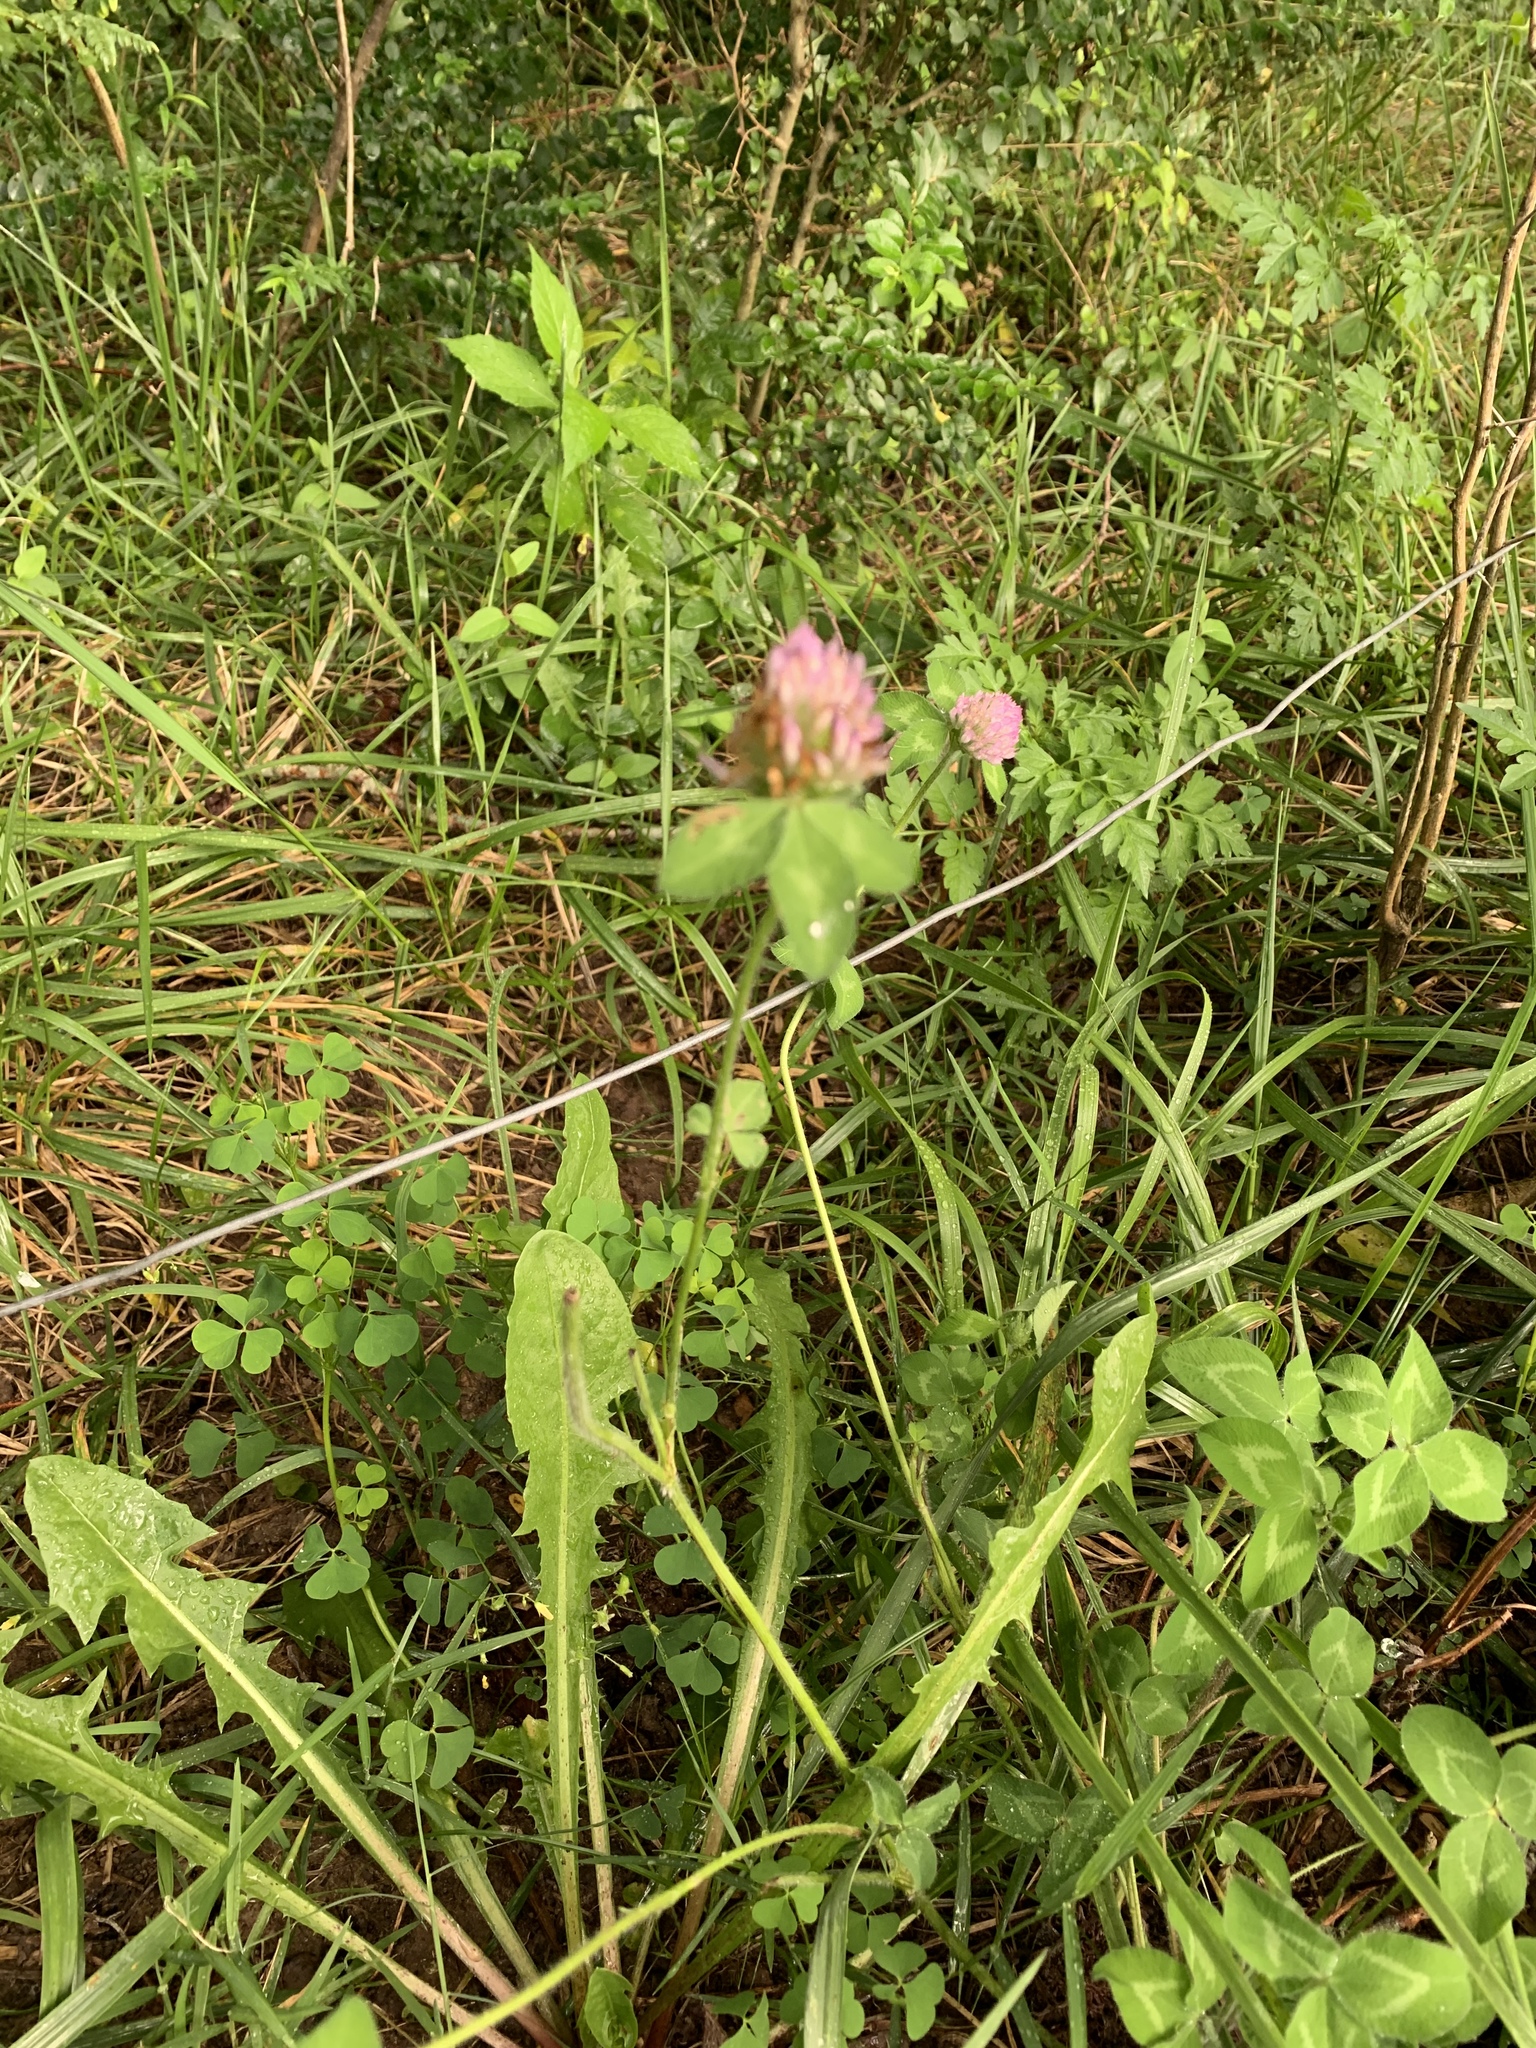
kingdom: Plantae
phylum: Tracheophyta
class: Magnoliopsida
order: Fabales
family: Fabaceae
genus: Trifolium
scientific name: Trifolium pratense
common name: Red clover
